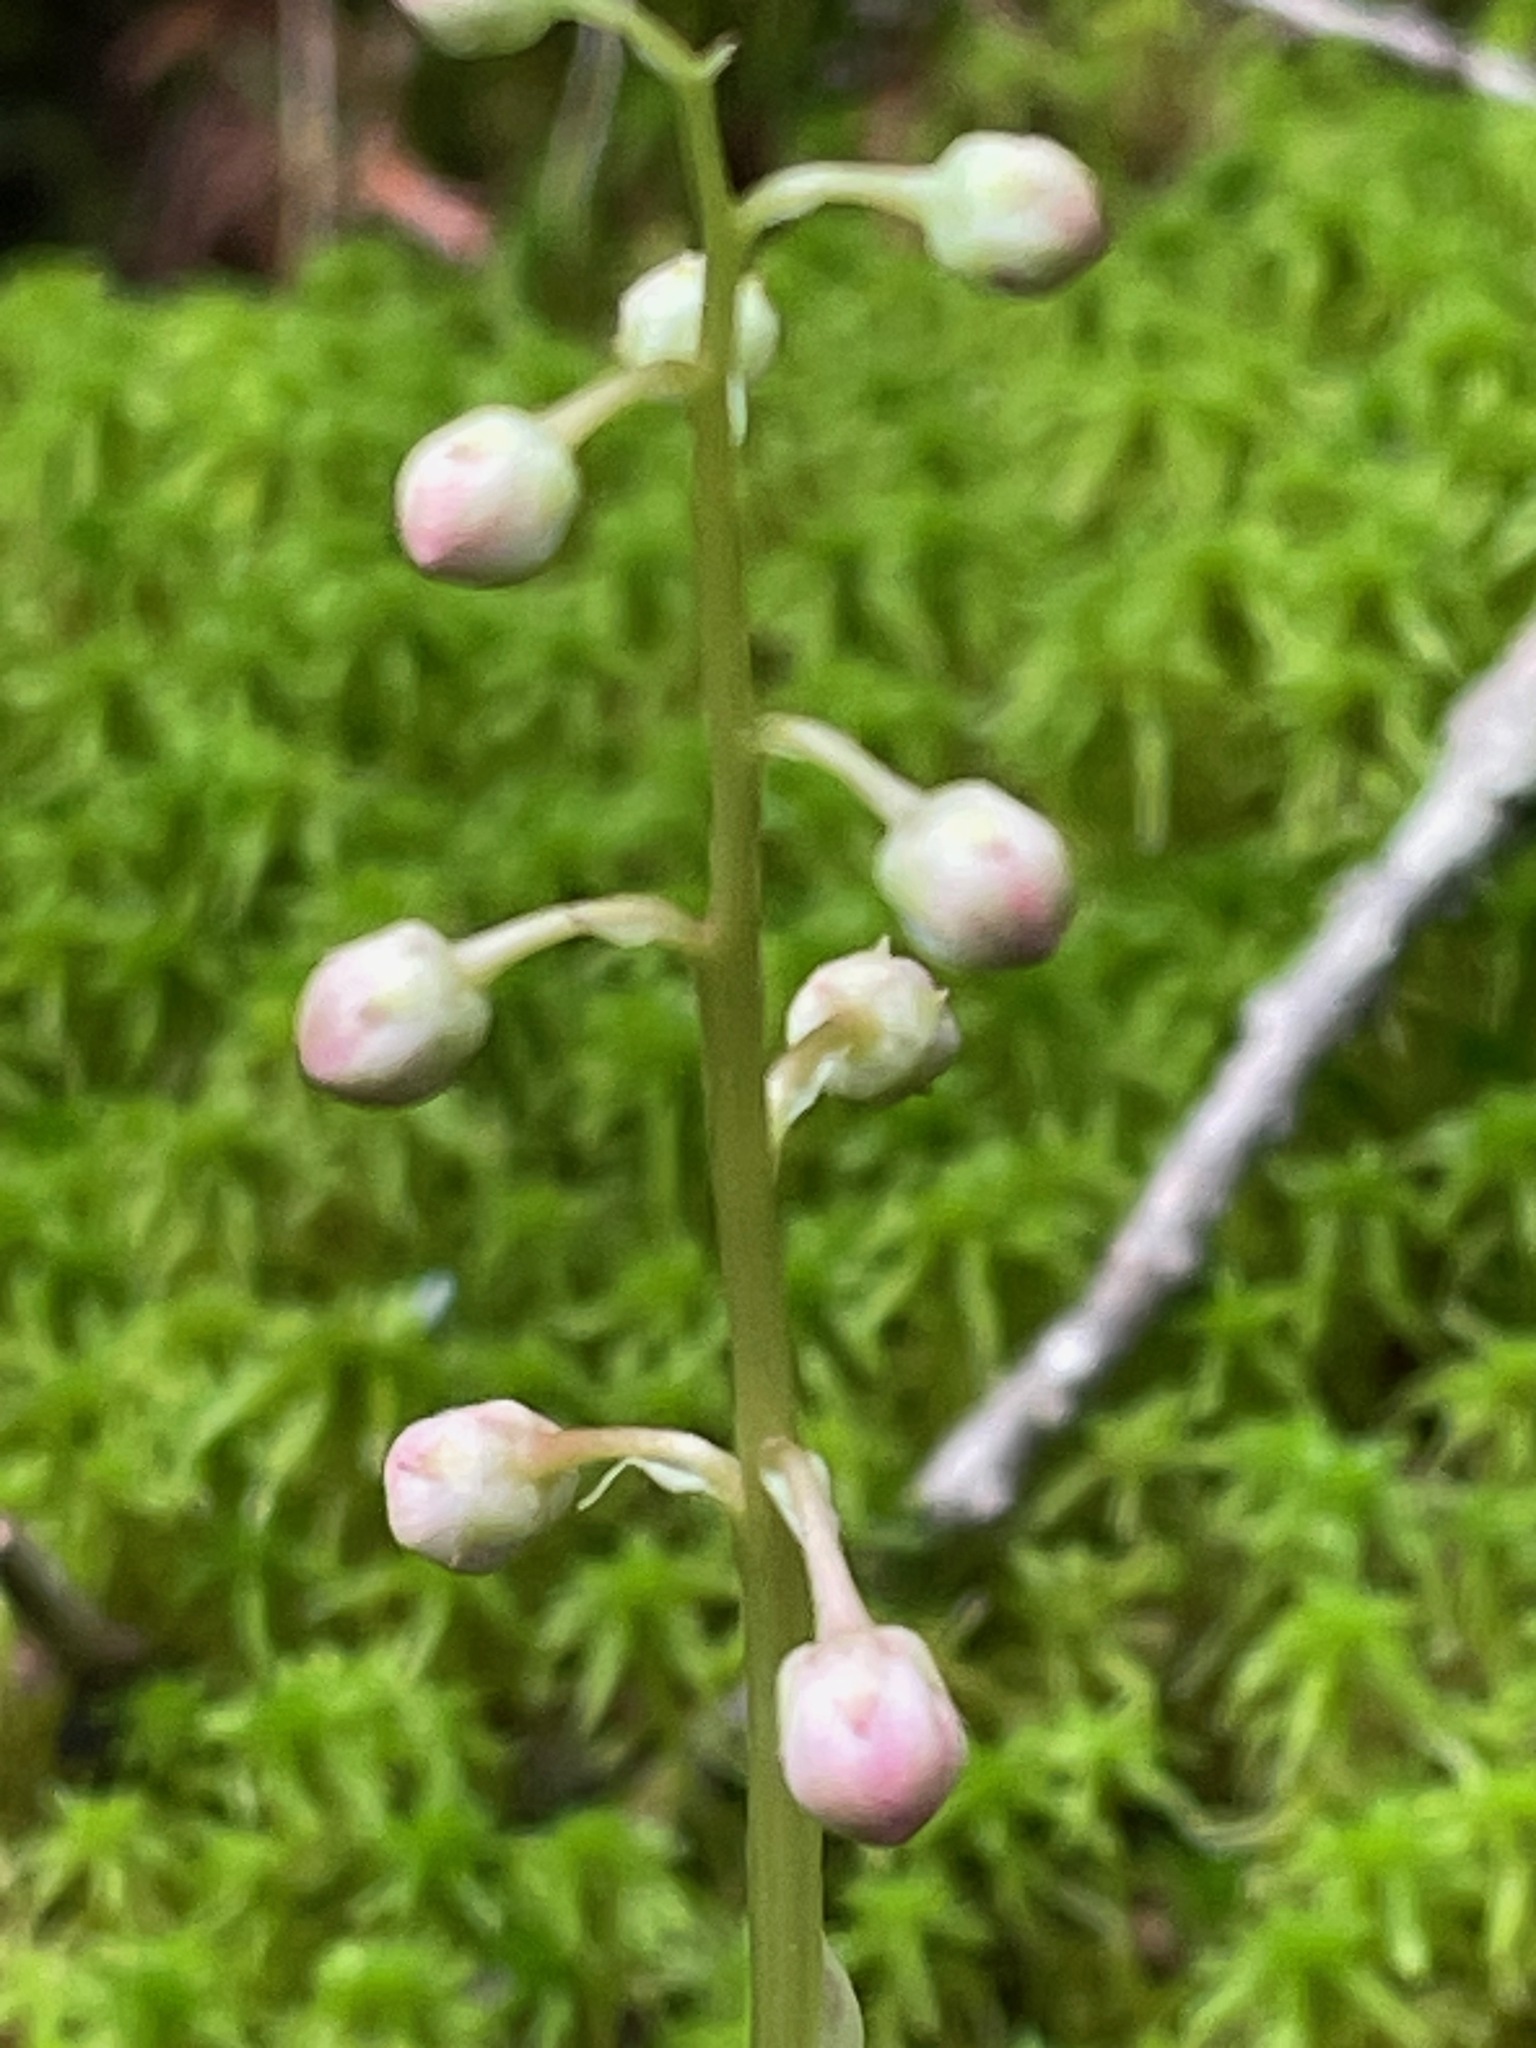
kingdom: Plantae
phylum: Tracheophyta
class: Magnoliopsida
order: Ericales
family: Ericaceae
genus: Pyrola
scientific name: Pyrola asarifolia
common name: Bog wintergreen
